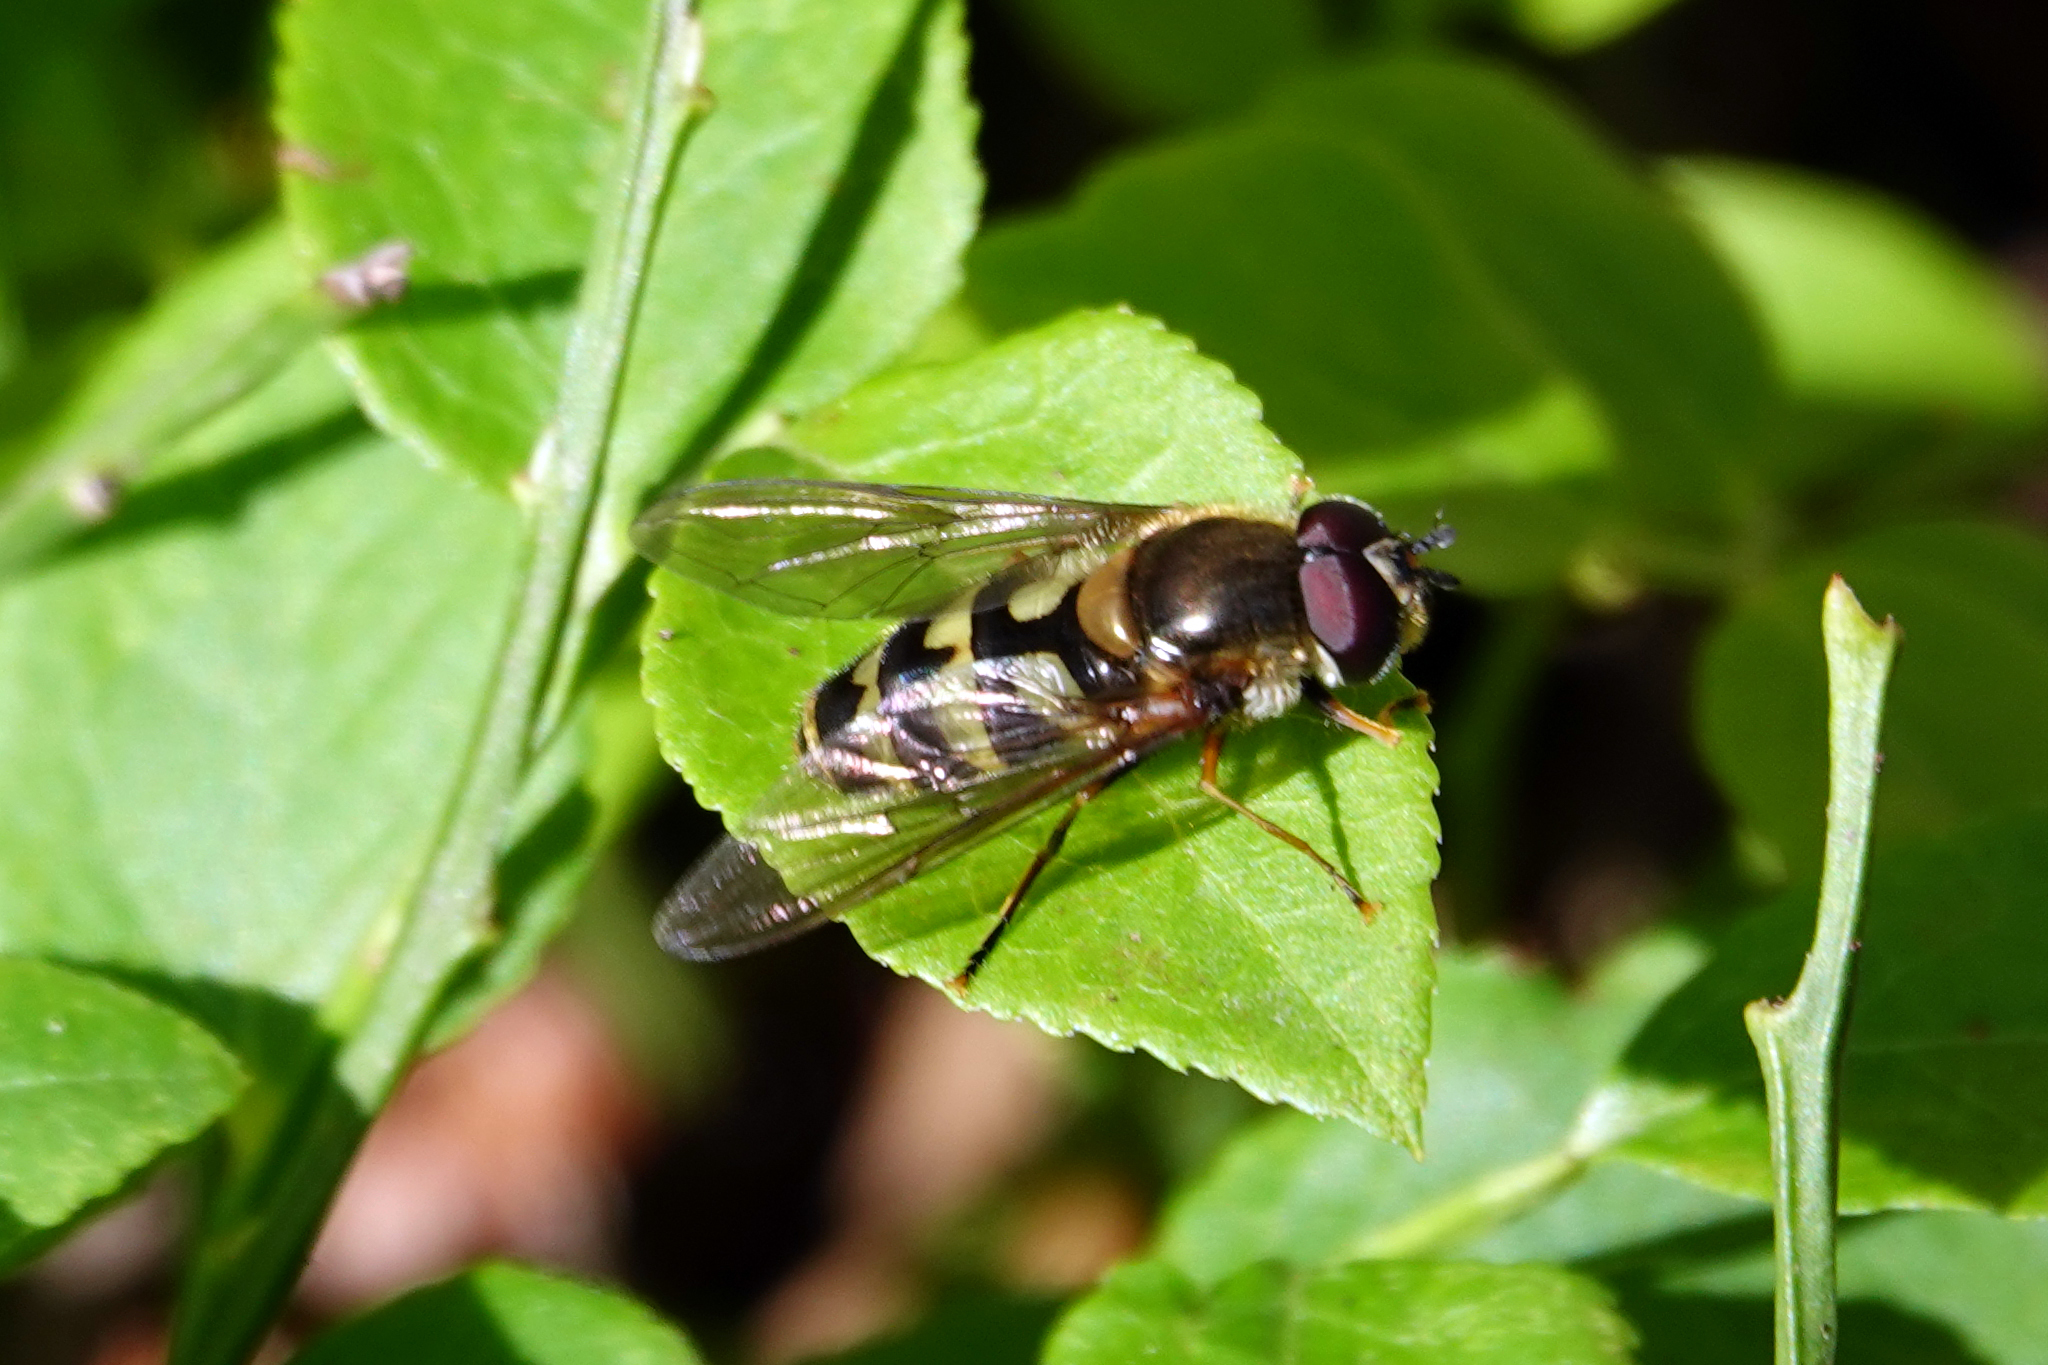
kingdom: Animalia
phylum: Arthropoda
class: Insecta
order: Diptera
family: Syrphidae
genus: Megasyrphus
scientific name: Megasyrphus laxus
